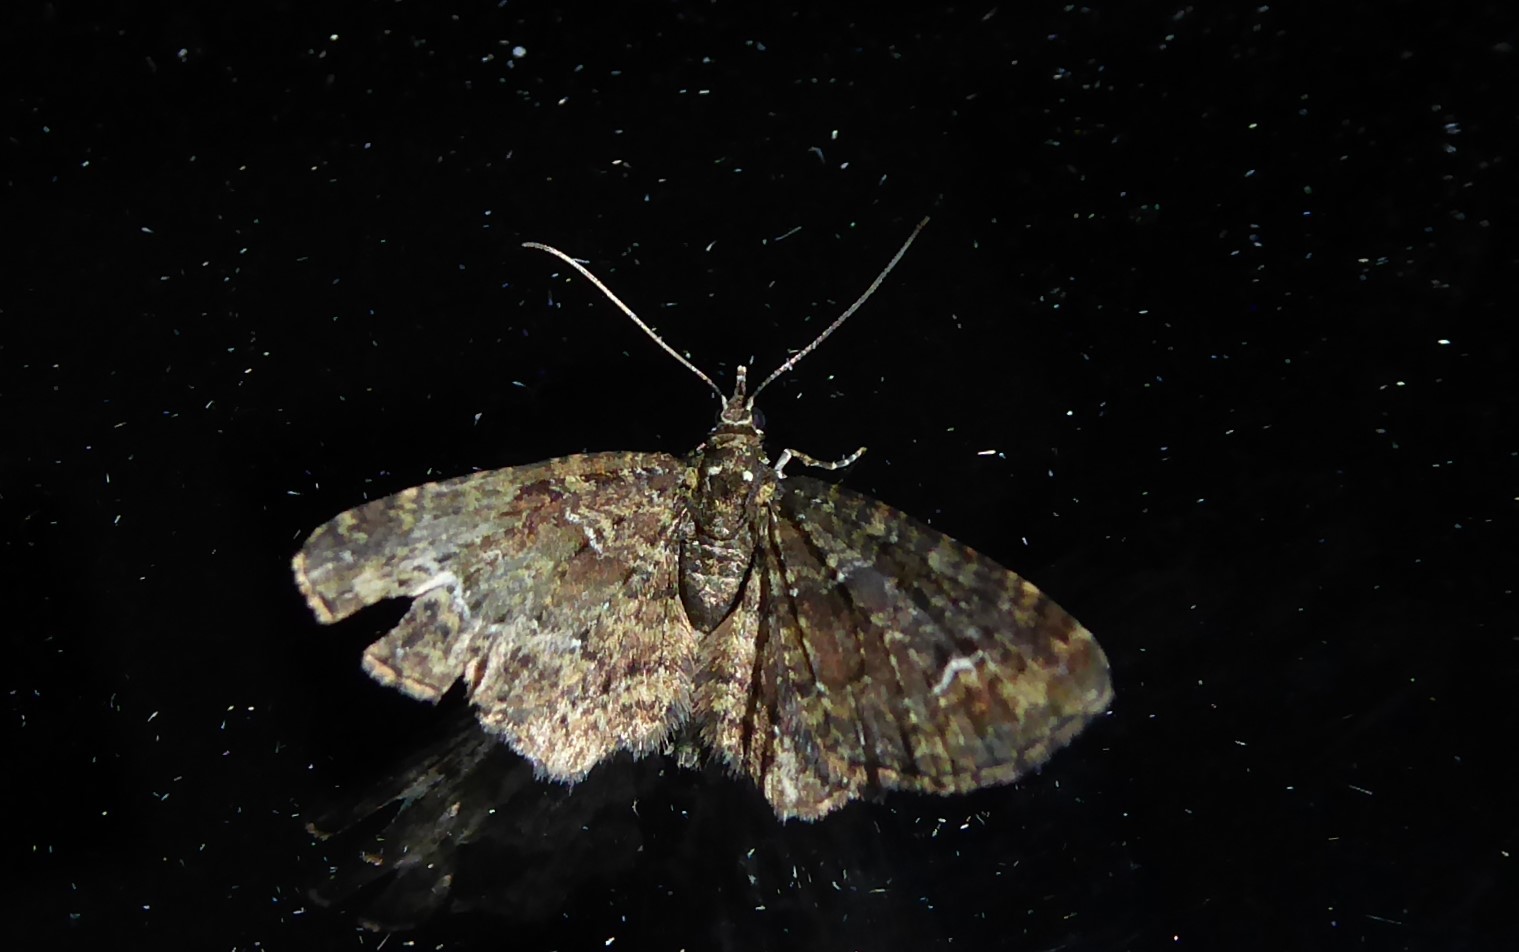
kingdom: Animalia
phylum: Arthropoda
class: Insecta
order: Lepidoptera
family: Geometridae
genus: Pasiphilodes
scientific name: Pasiphilodes testulata
